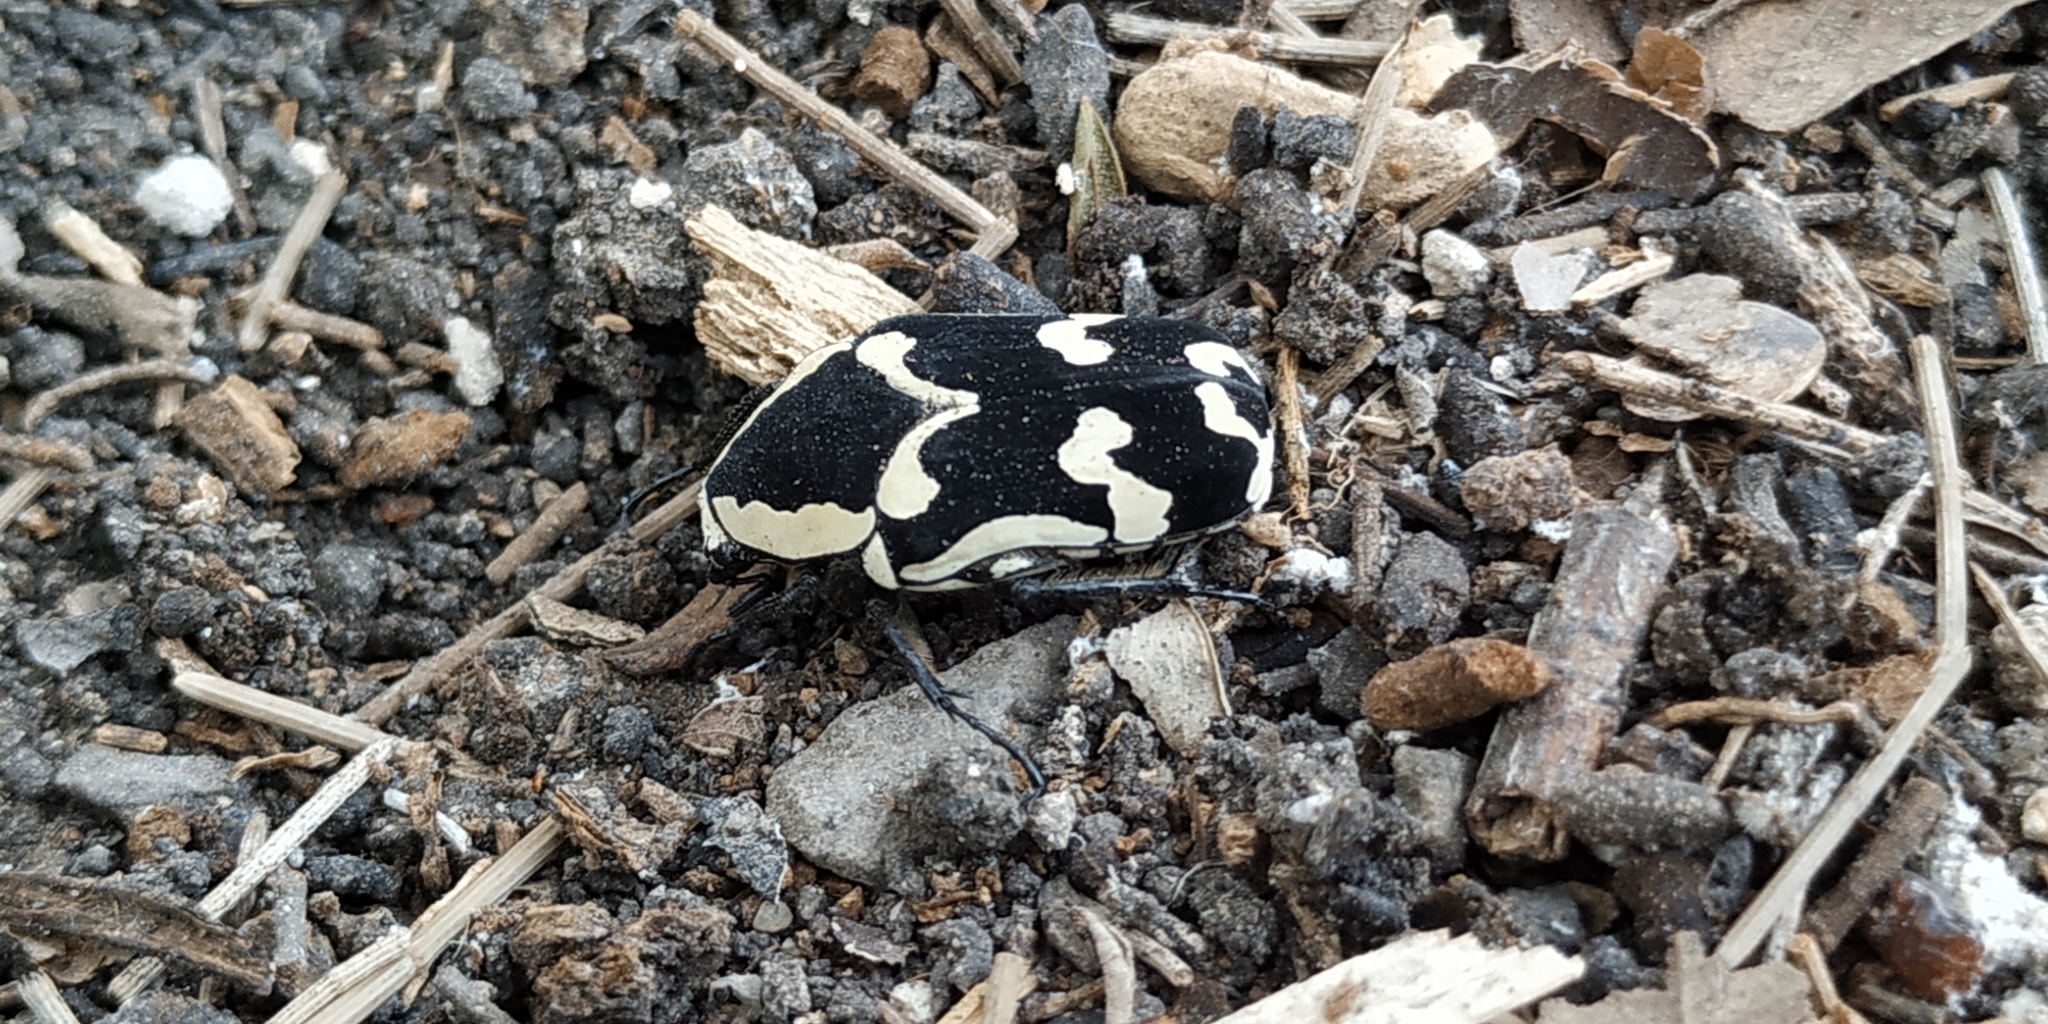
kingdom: Animalia
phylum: Arthropoda
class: Insecta
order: Coleoptera
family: Scarabaeidae
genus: Amithao
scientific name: Amithao marginicollis
